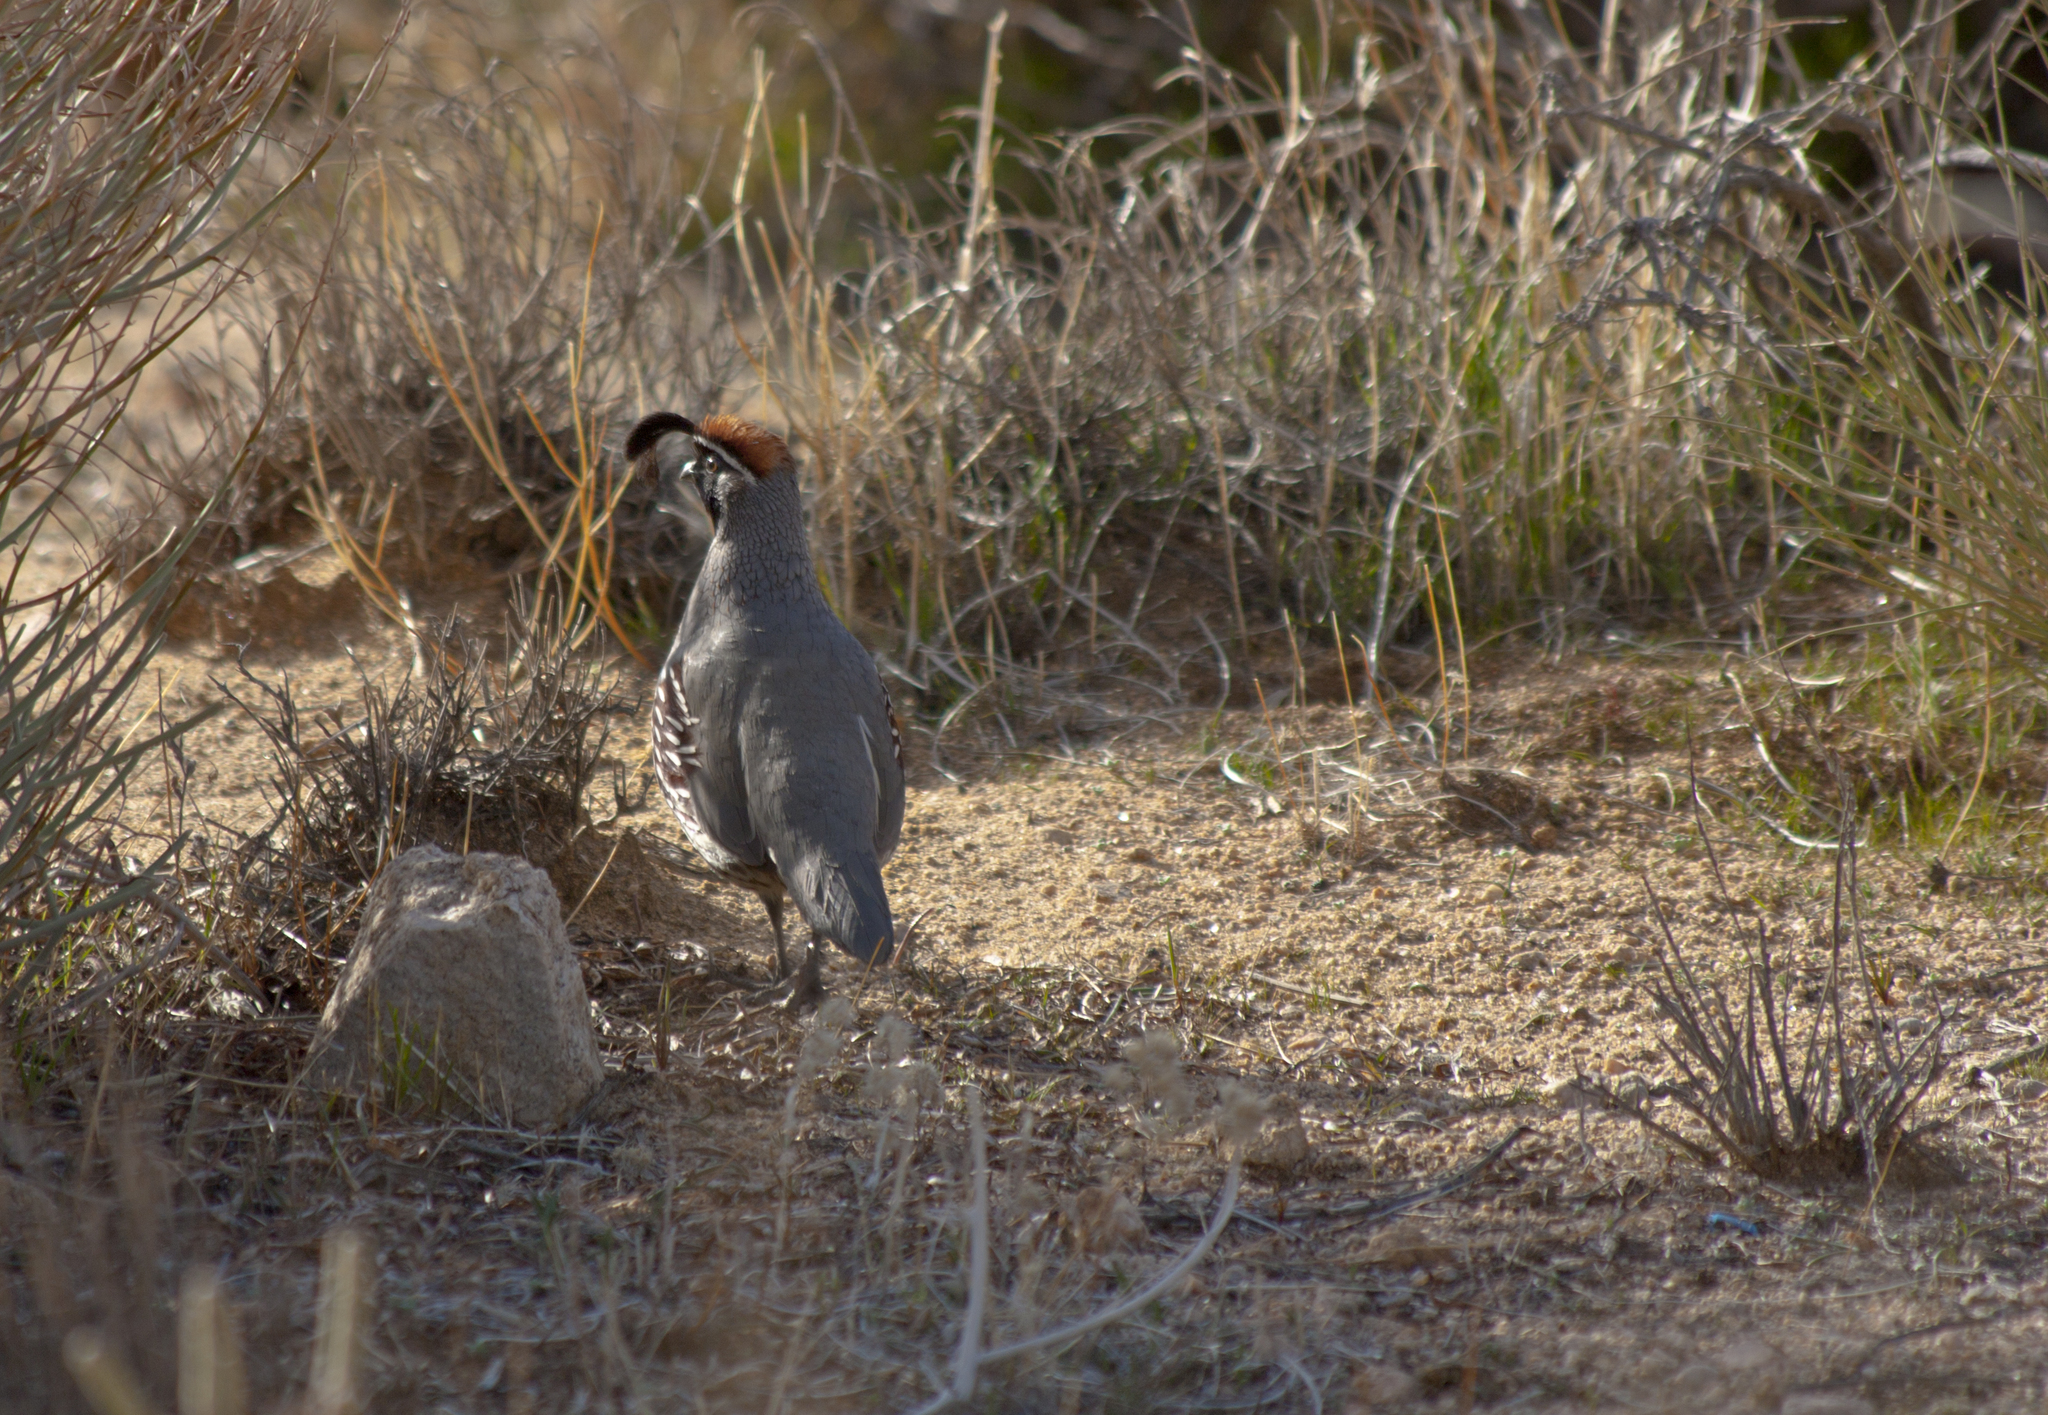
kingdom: Animalia
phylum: Chordata
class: Aves
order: Galliformes
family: Odontophoridae
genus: Callipepla
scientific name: Callipepla gambelii
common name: Gambel's quail
